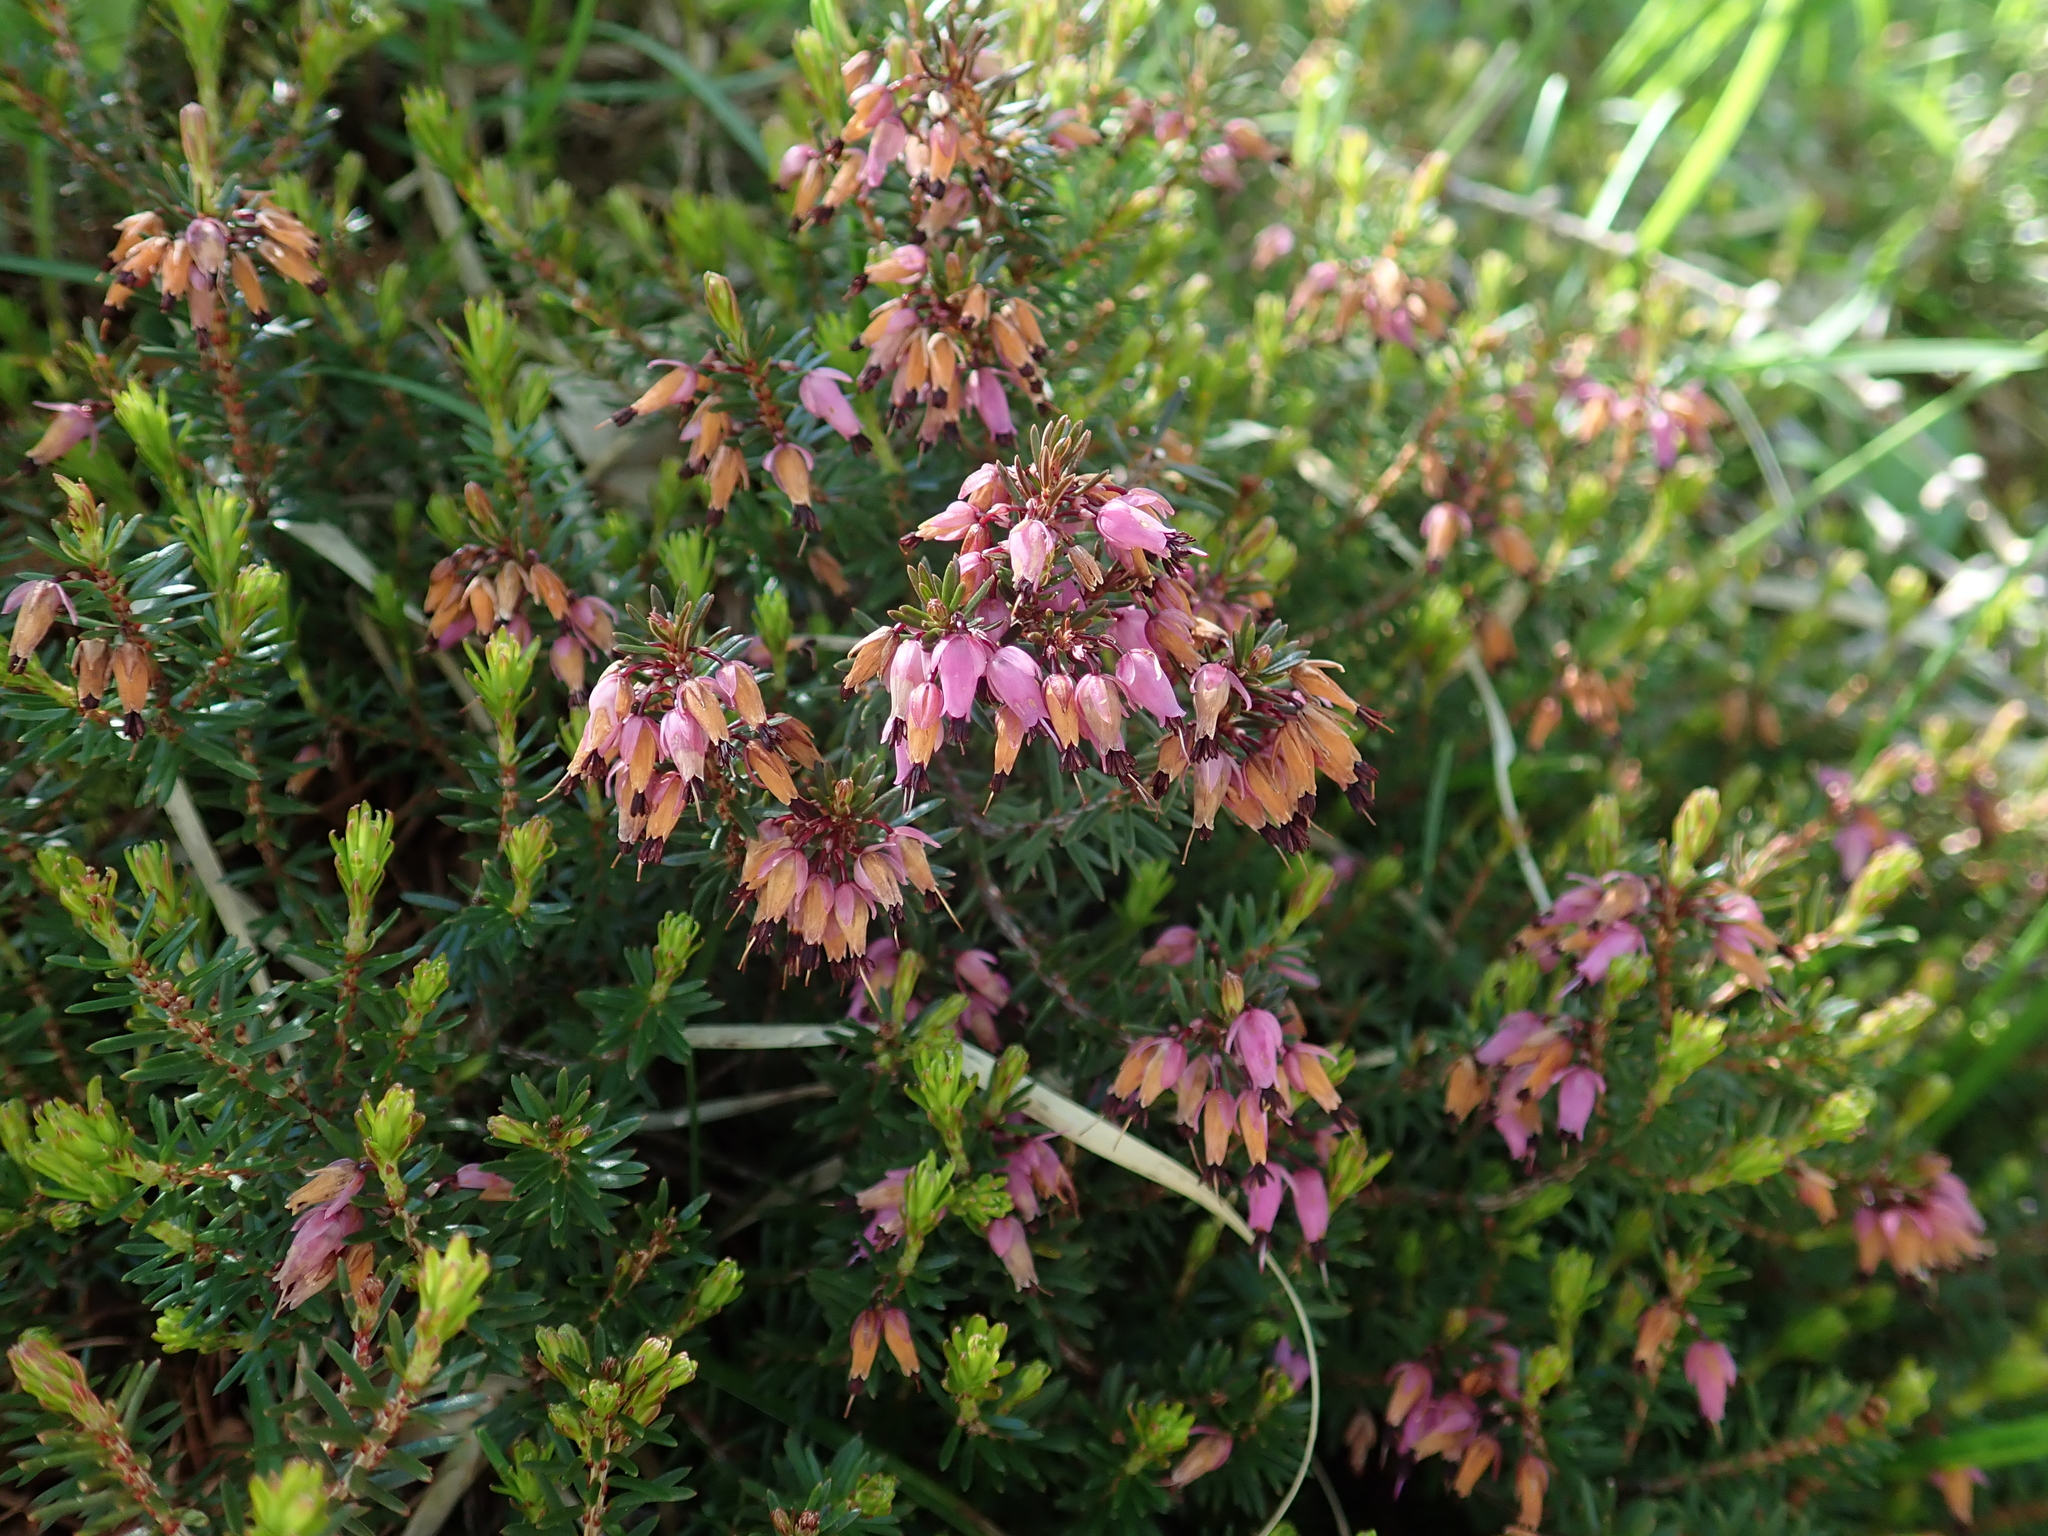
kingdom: Plantae
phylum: Tracheophyta
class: Magnoliopsida
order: Ericales
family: Ericaceae
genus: Erica
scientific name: Erica carnea
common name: Winter heath
